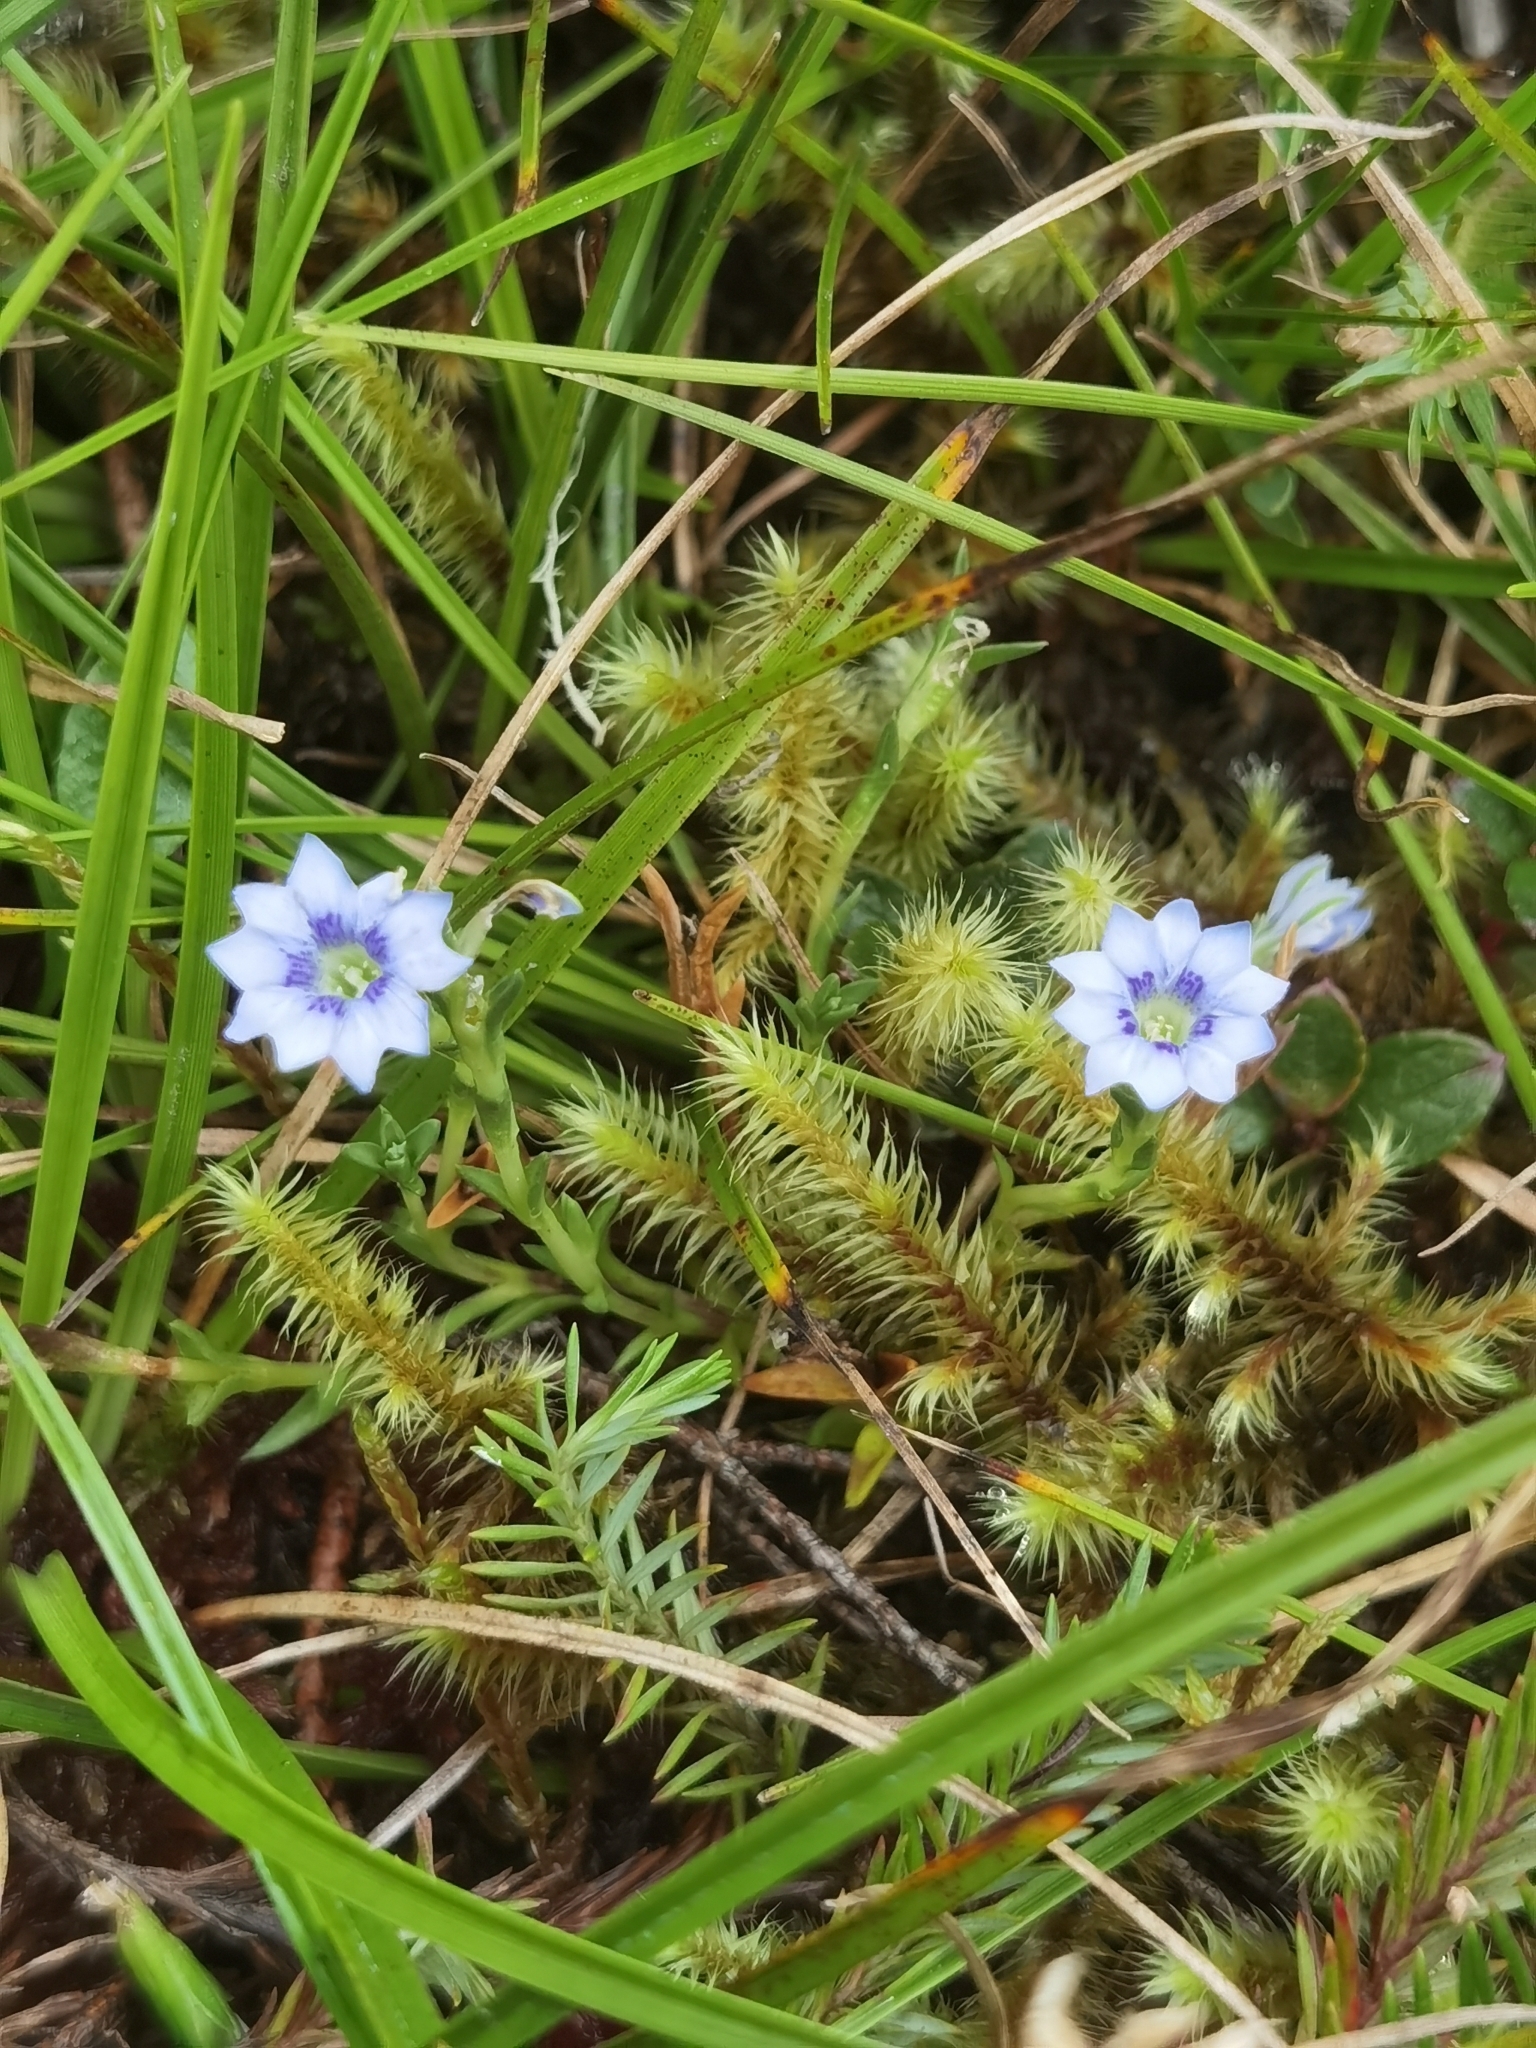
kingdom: Plantae
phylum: Tracheophyta
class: Magnoliopsida
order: Gentianales
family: Gentianaceae
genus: Gentiana
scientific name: Gentiana sedifolia
